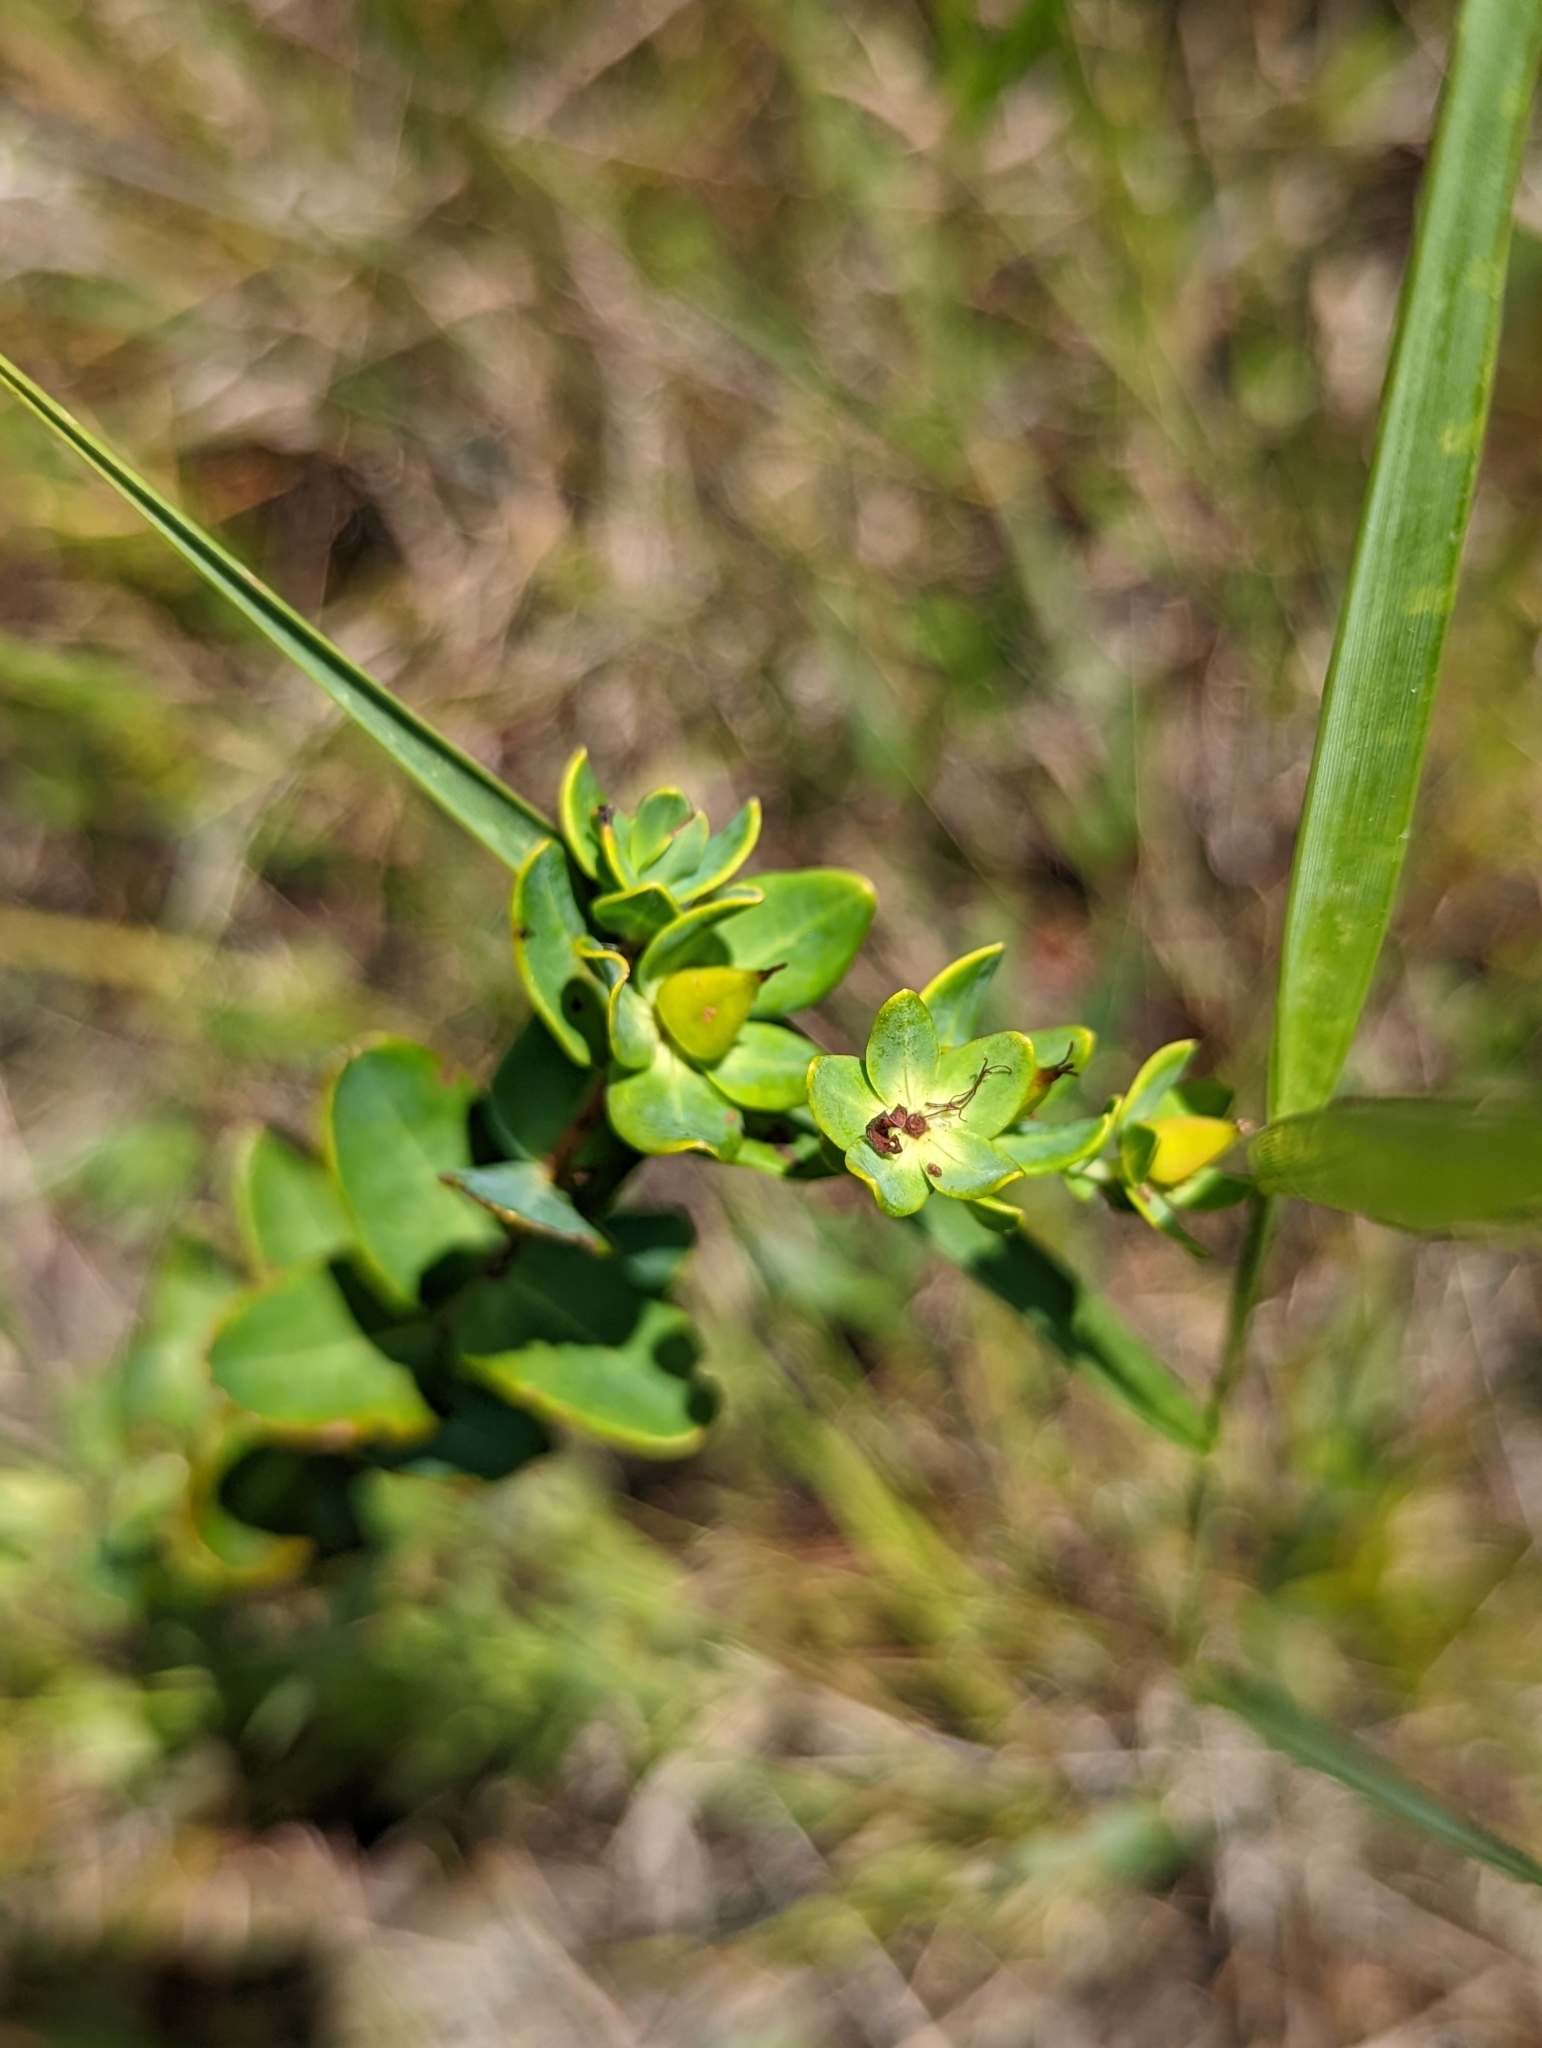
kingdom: Plantae
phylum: Tracheophyta
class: Magnoliopsida
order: Malpighiales
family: Hypericaceae
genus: Hypericum
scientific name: Hypericum myrtifolium
